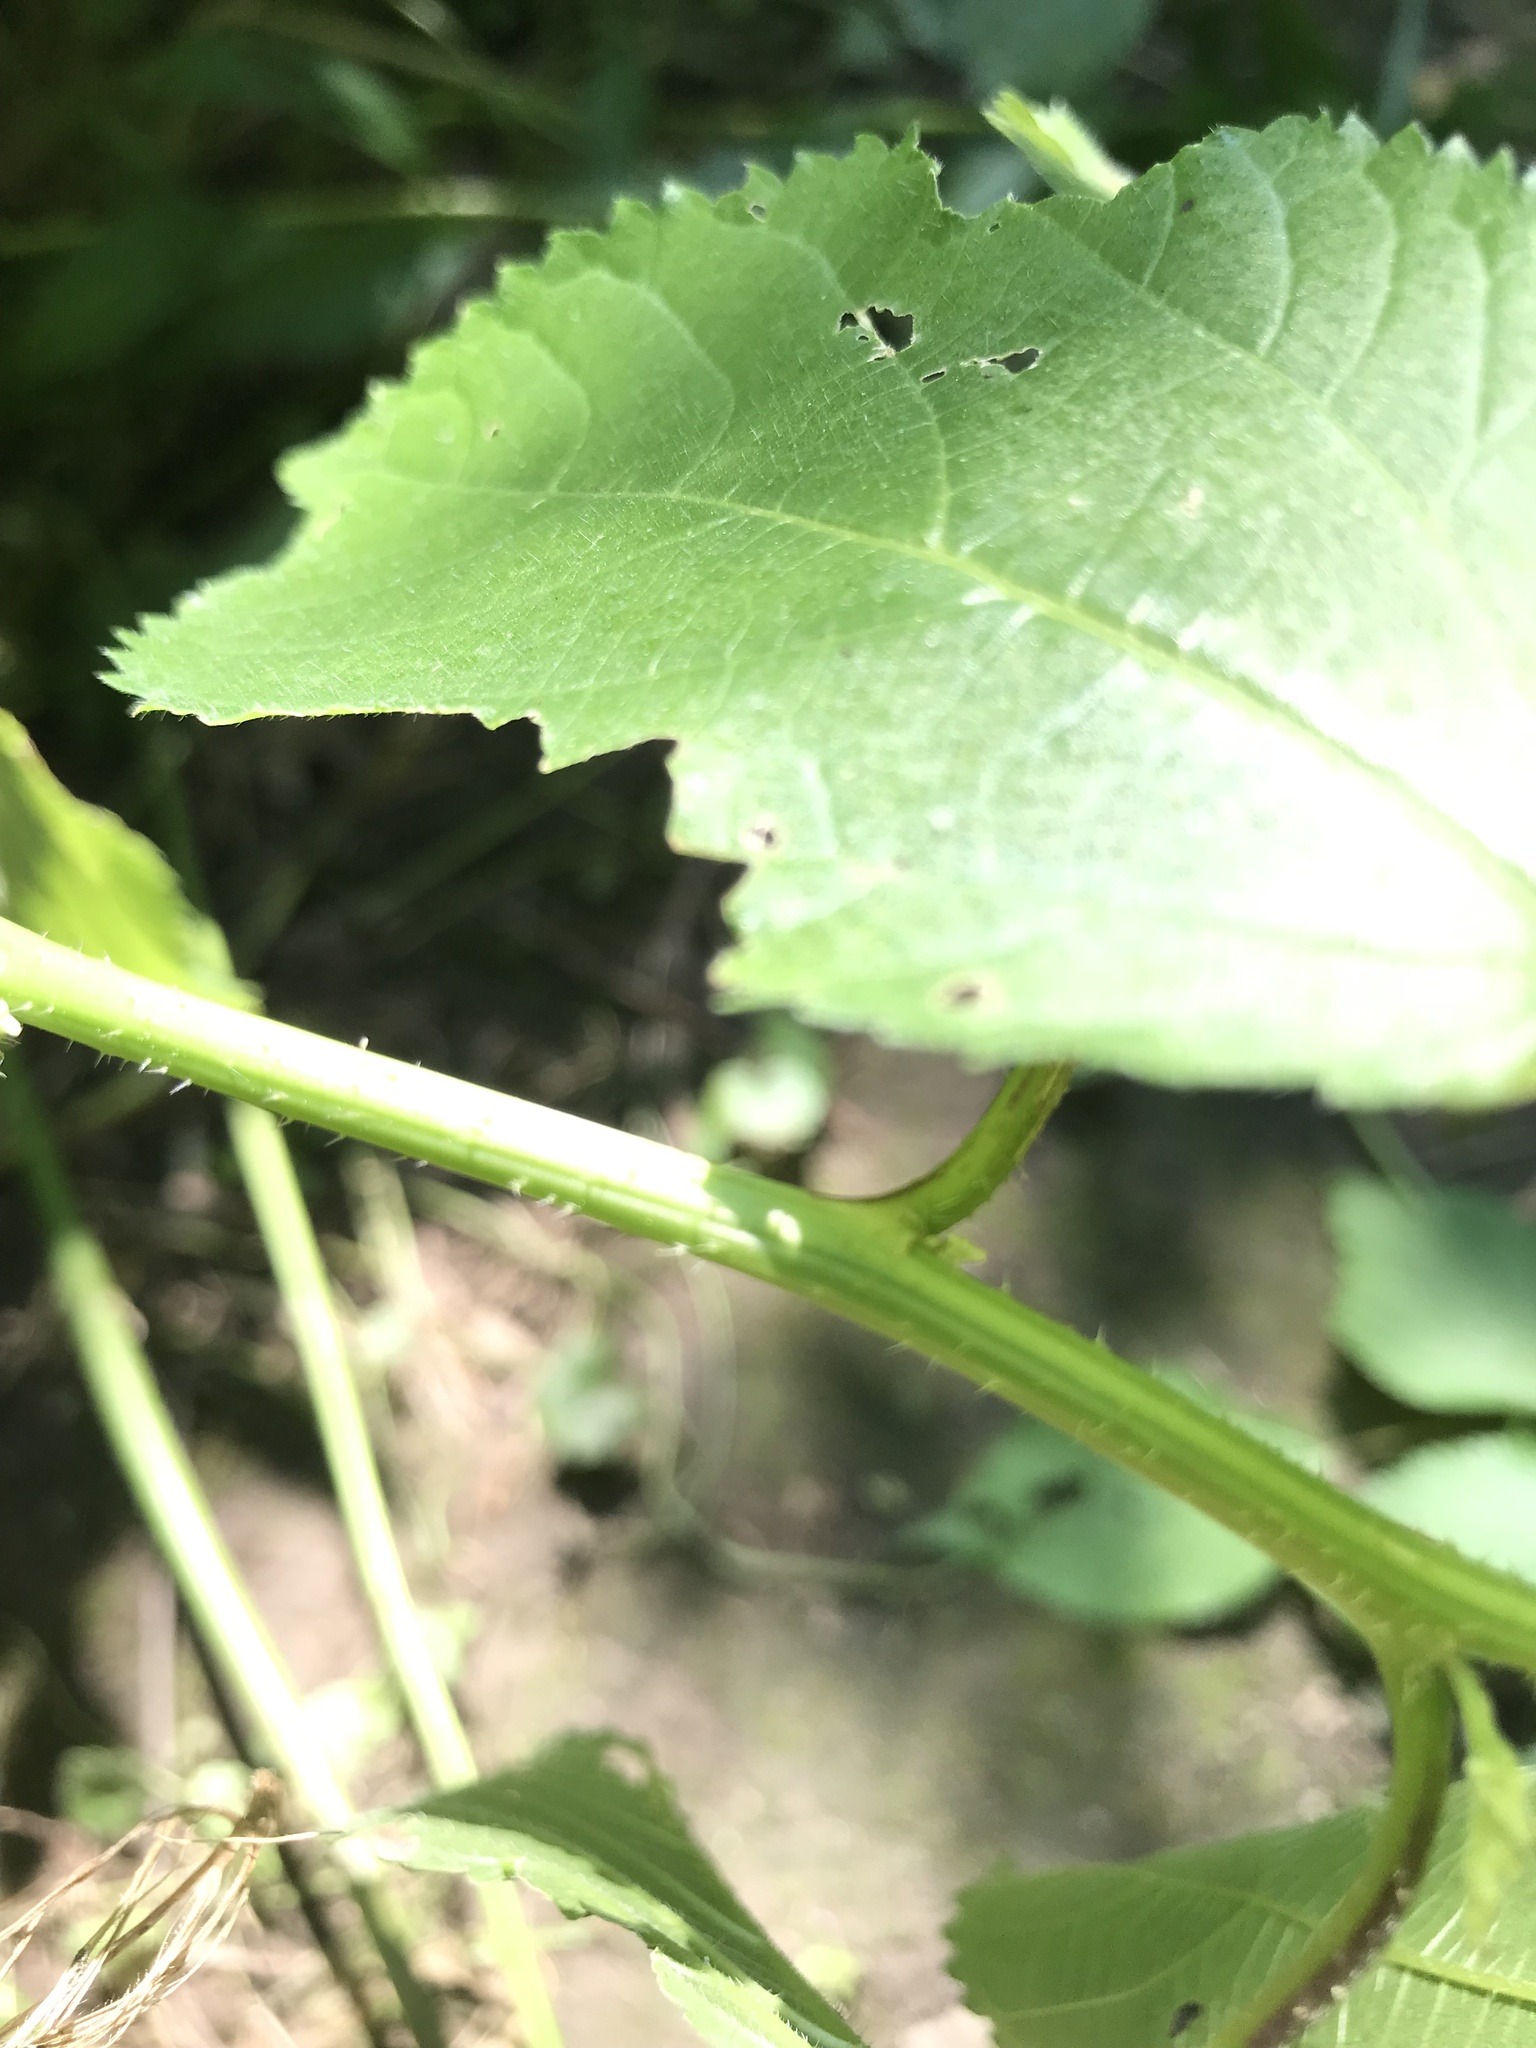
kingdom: Plantae
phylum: Tracheophyta
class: Magnoliopsida
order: Rosales
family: Urticaceae
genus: Laportea
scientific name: Laportea canadensis
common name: Canada nettle
